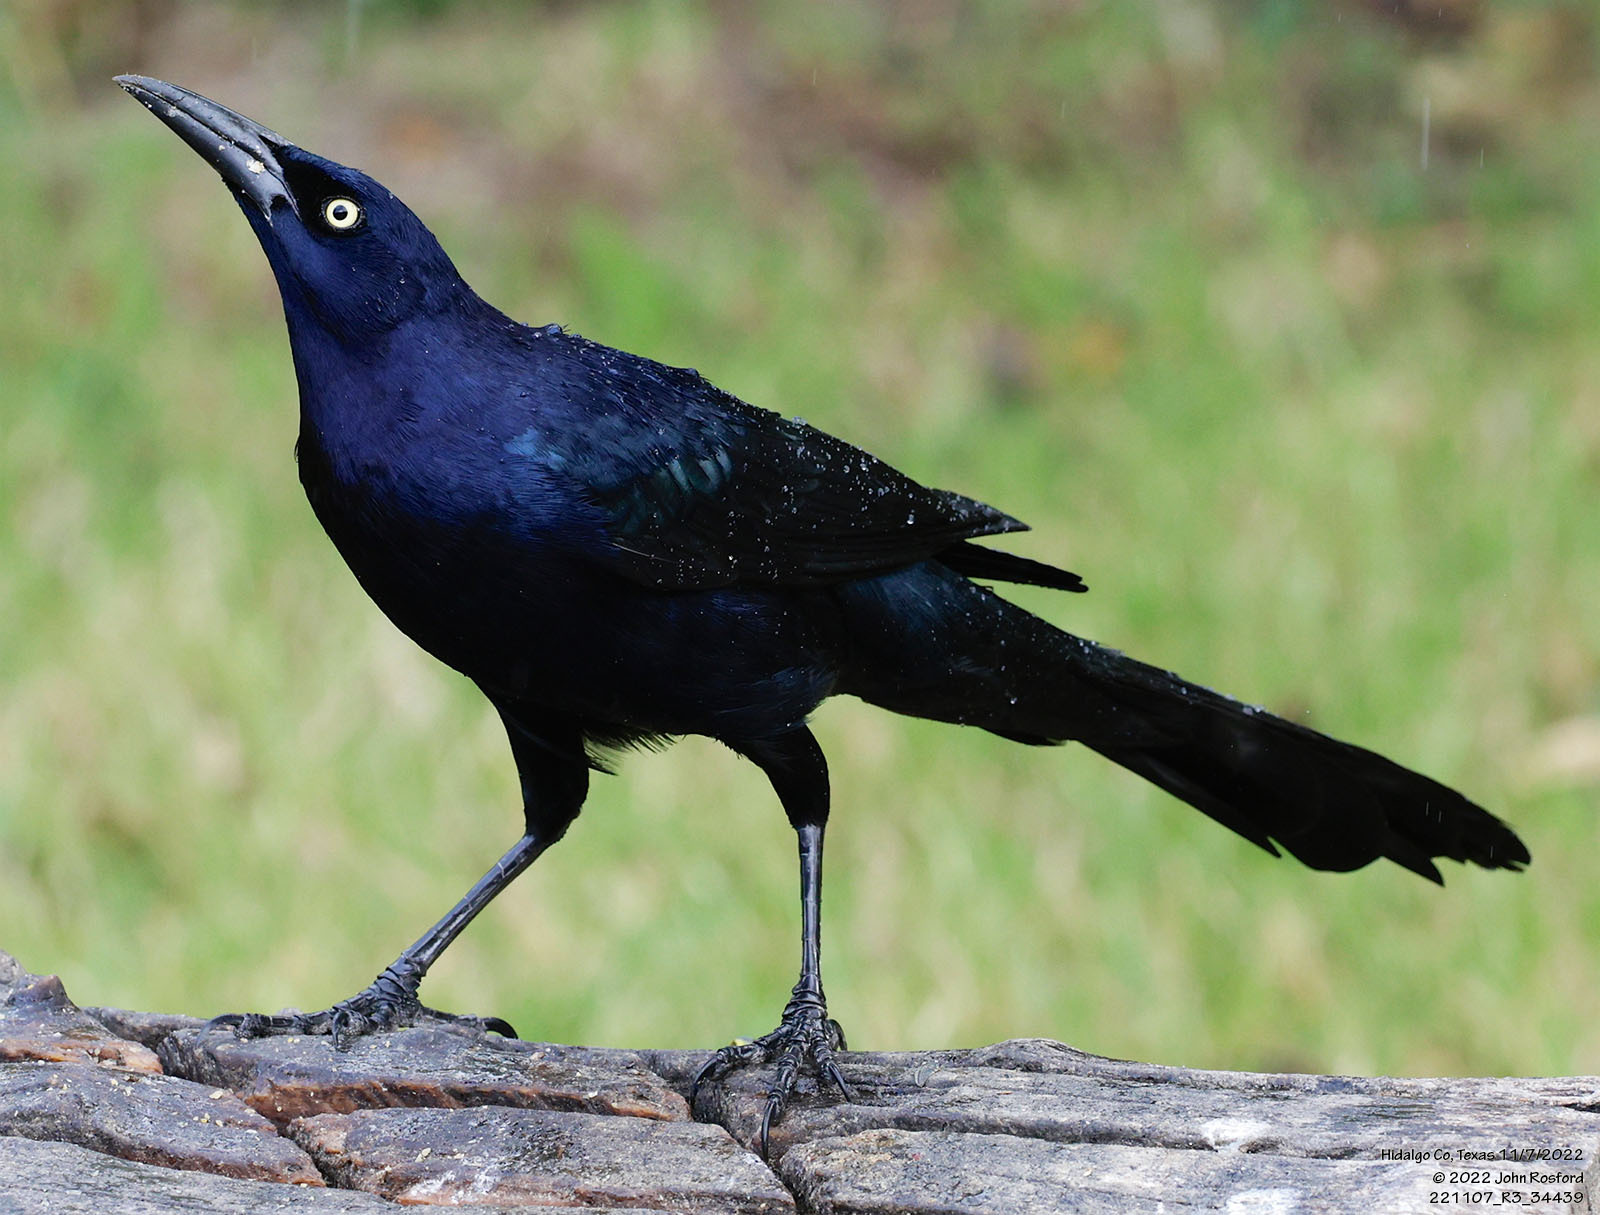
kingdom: Animalia
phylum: Chordata
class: Aves
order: Passeriformes
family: Icteridae
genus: Quiscalus
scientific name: Quiscalus mexicanus
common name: Great-tailed grackle
